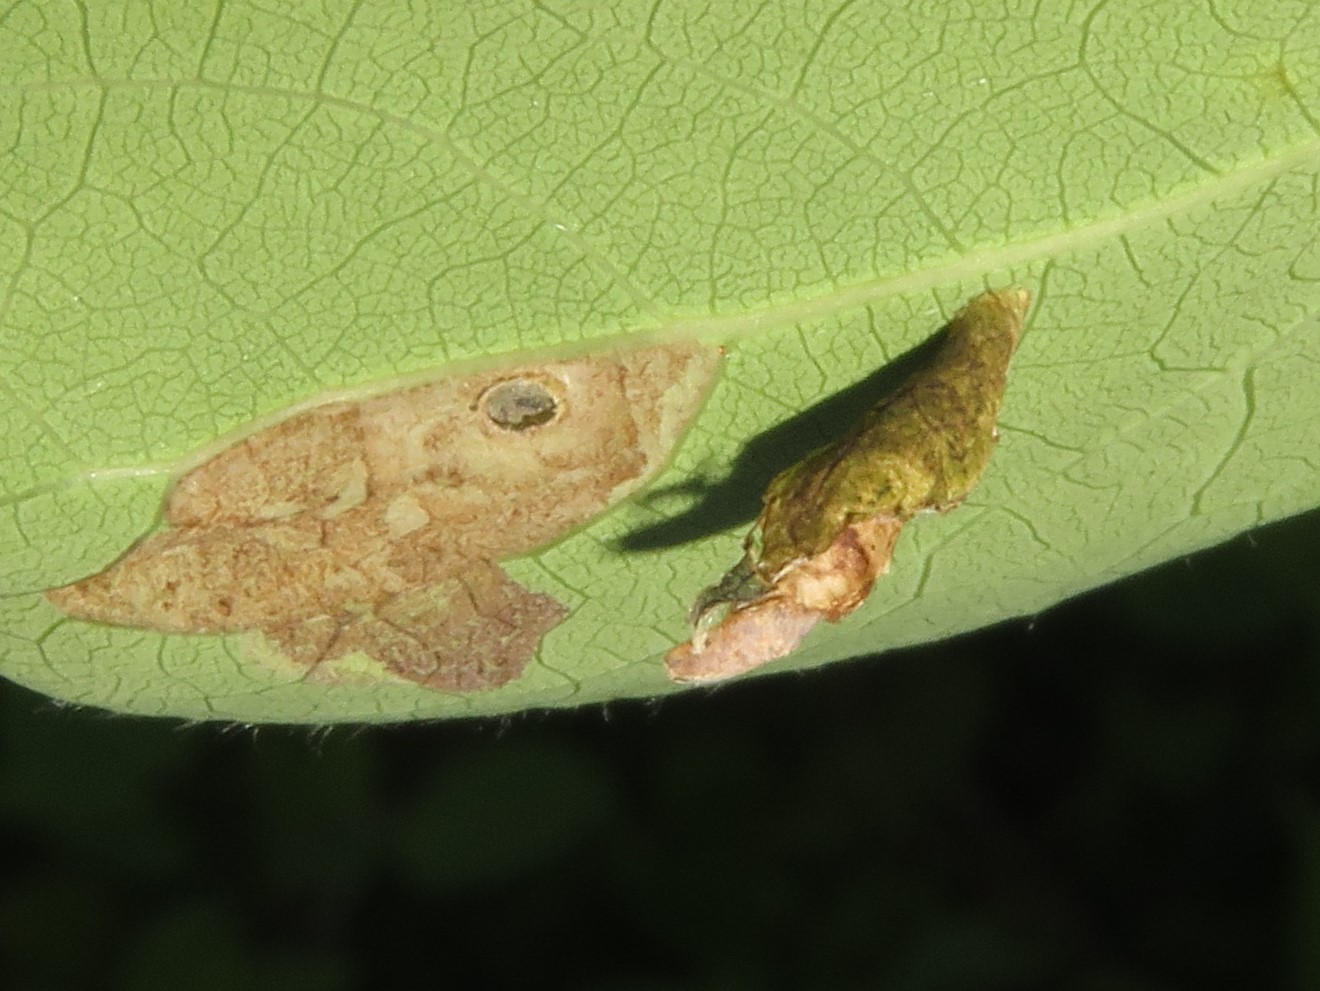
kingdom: Animalia
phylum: Arthropoda
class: Insecta
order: Lepidoptera
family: Coleophoridae
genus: Coleophora
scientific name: Coleophora pruniella
